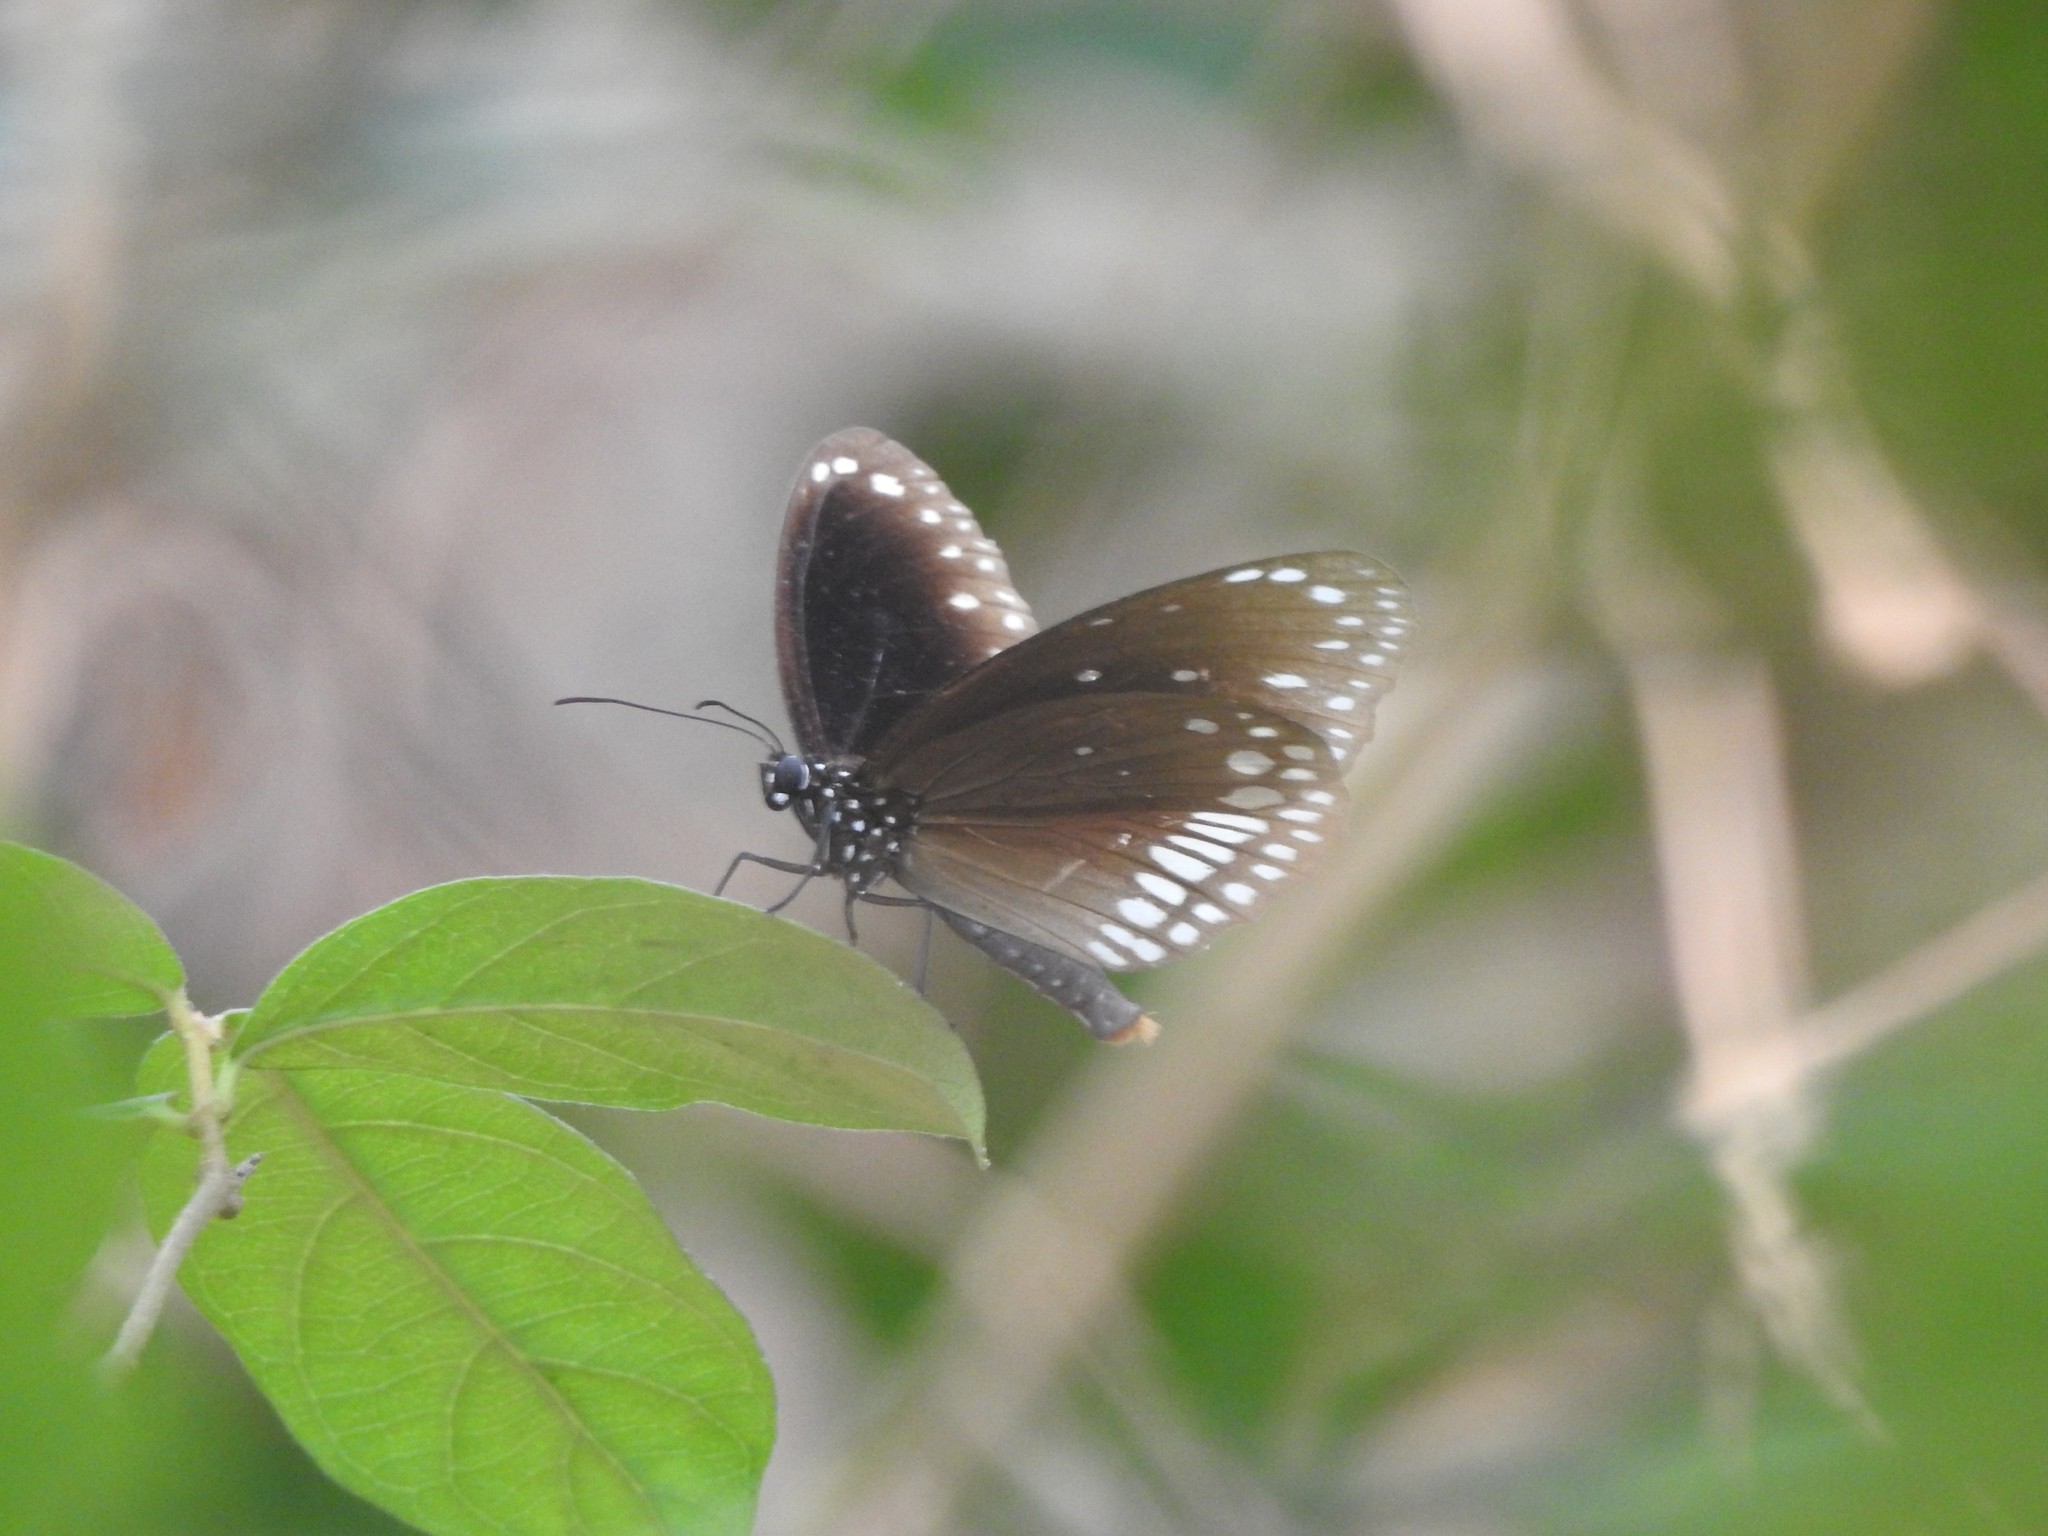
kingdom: Animalia
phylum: Arthropoda
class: Insecta
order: Lepidoptera
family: Nymphalidae
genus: Euploea
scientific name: Euploea core
